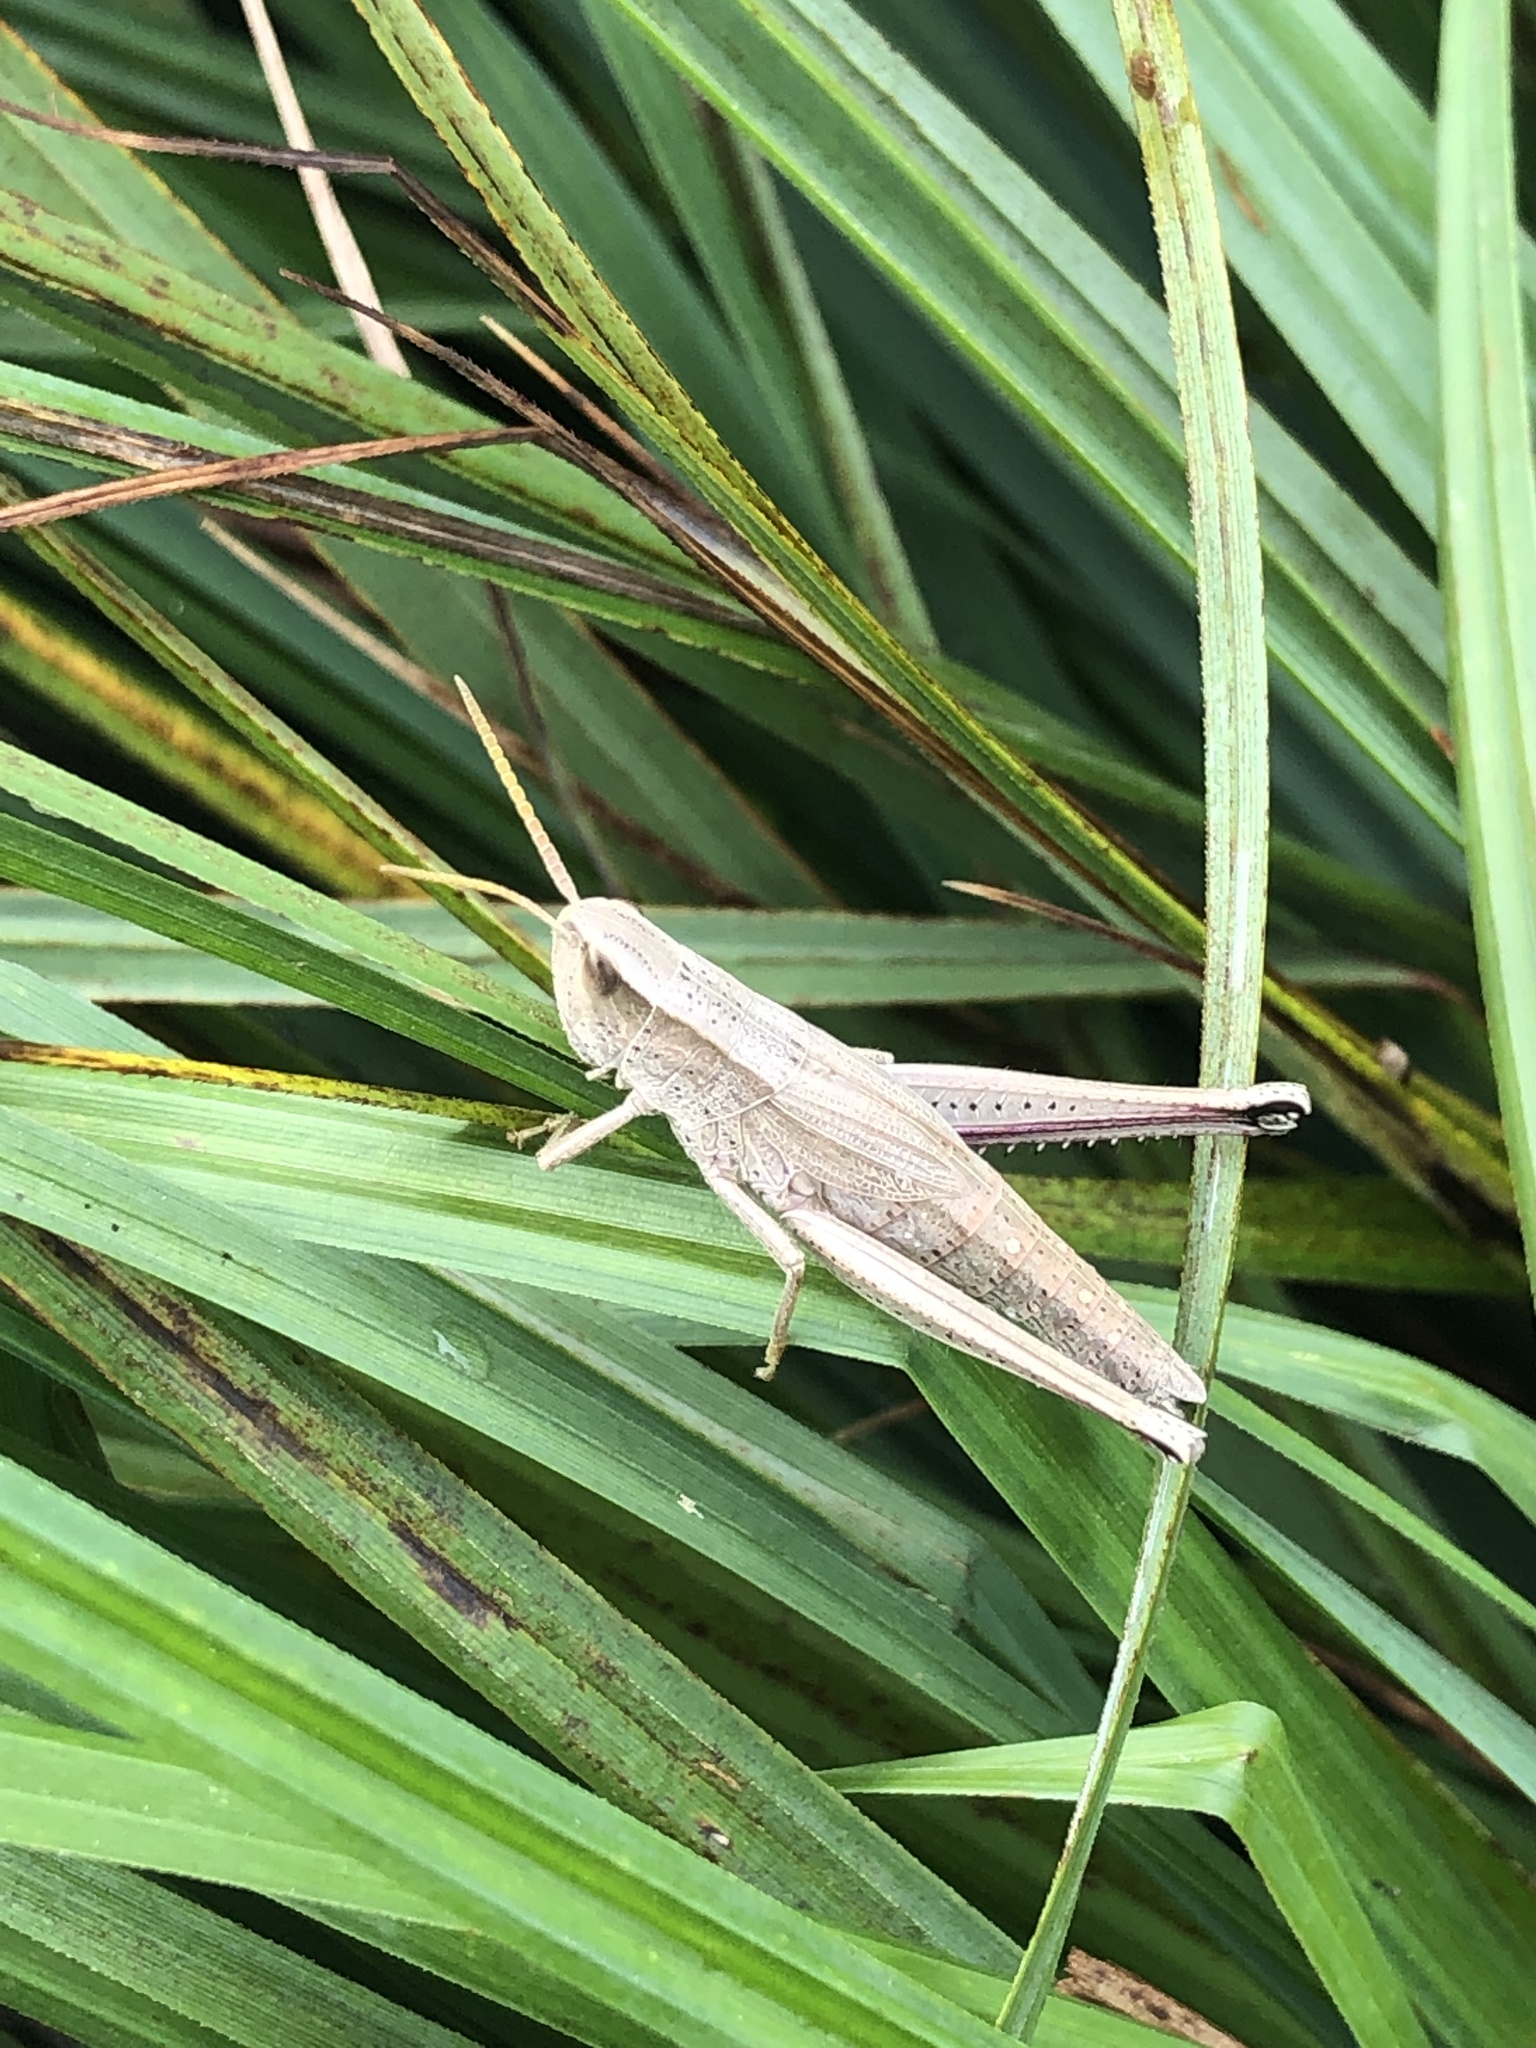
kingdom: Animalia
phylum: Arthropoda
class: Insecta
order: Orthoptera
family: Acrididae
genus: Chrysochraon
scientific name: Chrysochraon dispar
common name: Large gold grasshopper
